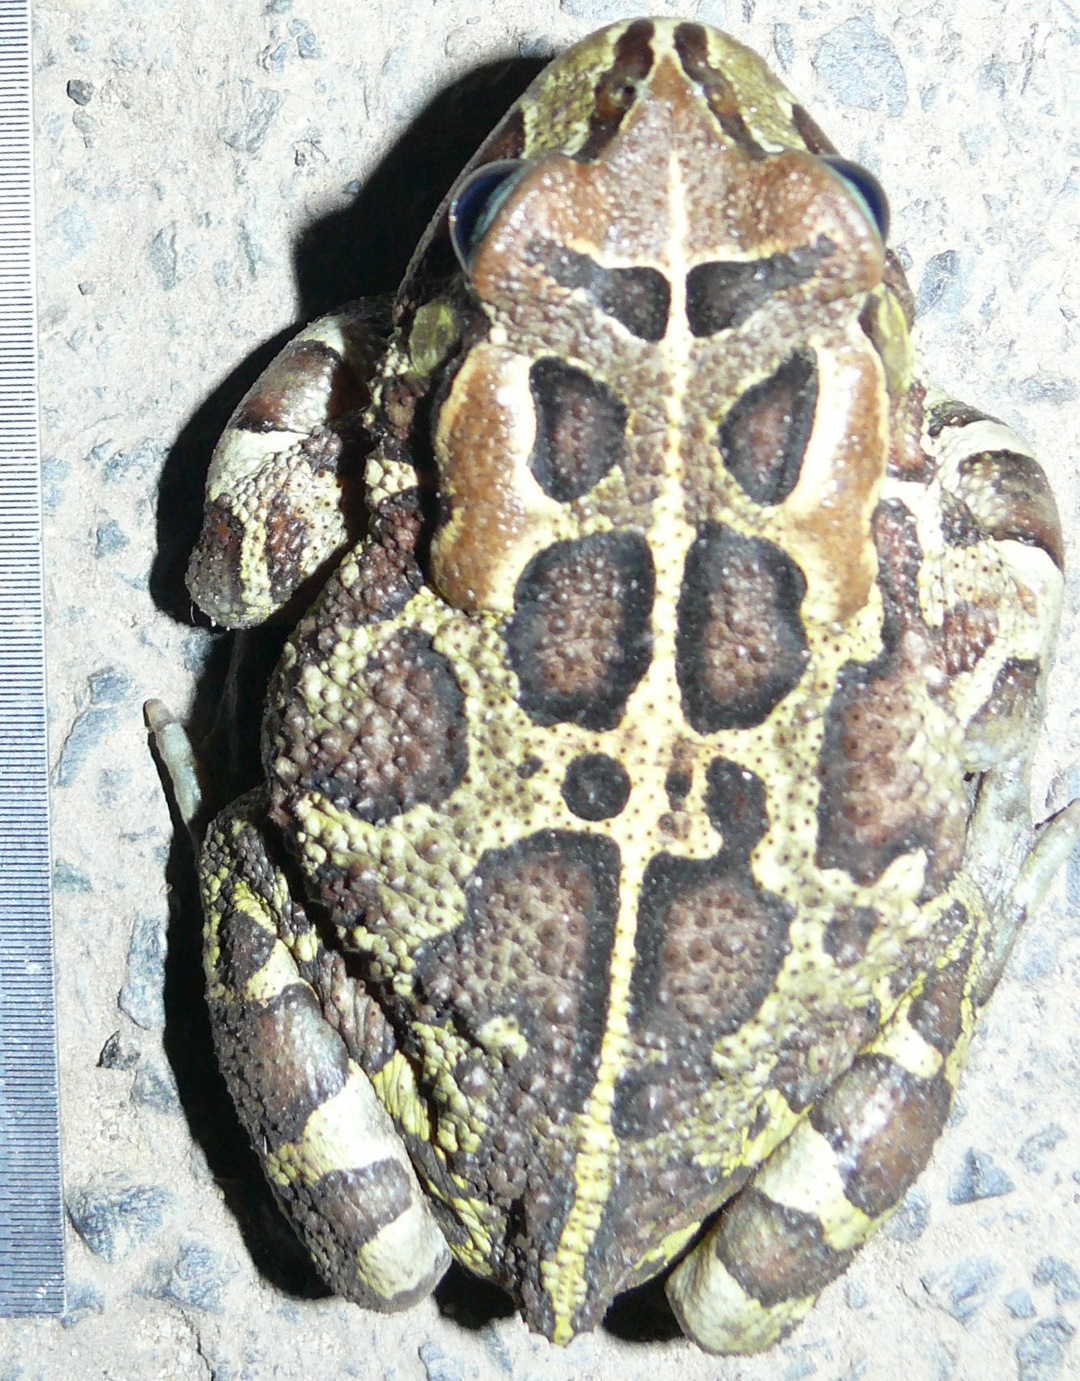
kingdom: Animalia
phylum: Chordata
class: Amphibia
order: Anura
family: Bufonidae
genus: Sclerophrys
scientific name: Sclerophrys pantherina
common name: Panther toad
